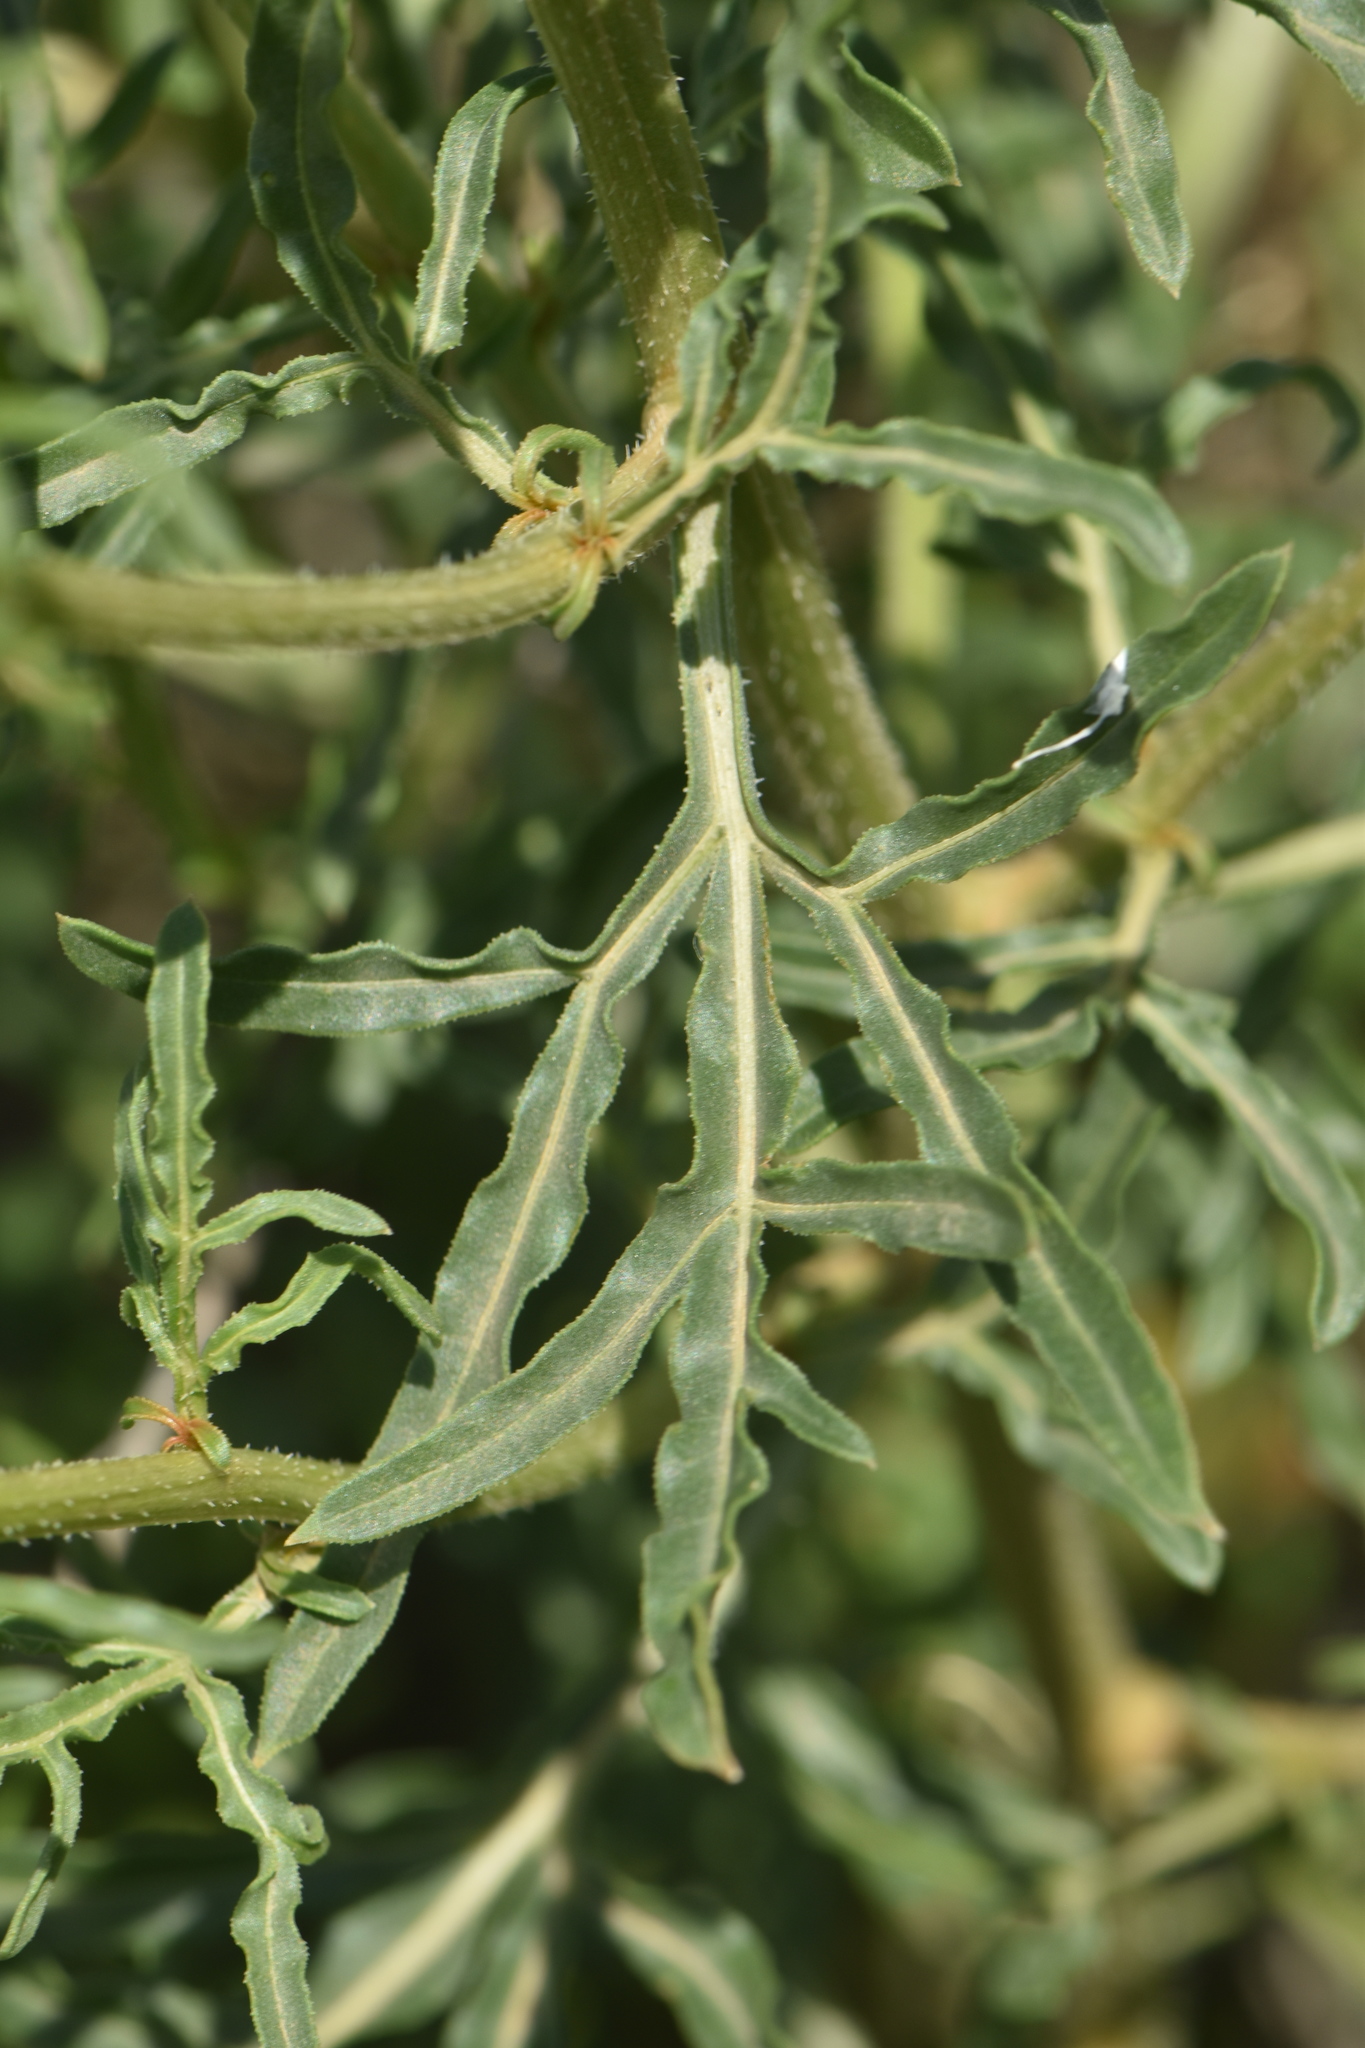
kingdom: Plantae
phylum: Tracheophyta
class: Magnoliopsida
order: Brassicales
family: Resedaceae
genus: Reseda
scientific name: Reseda lutea
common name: Wild mignonette
